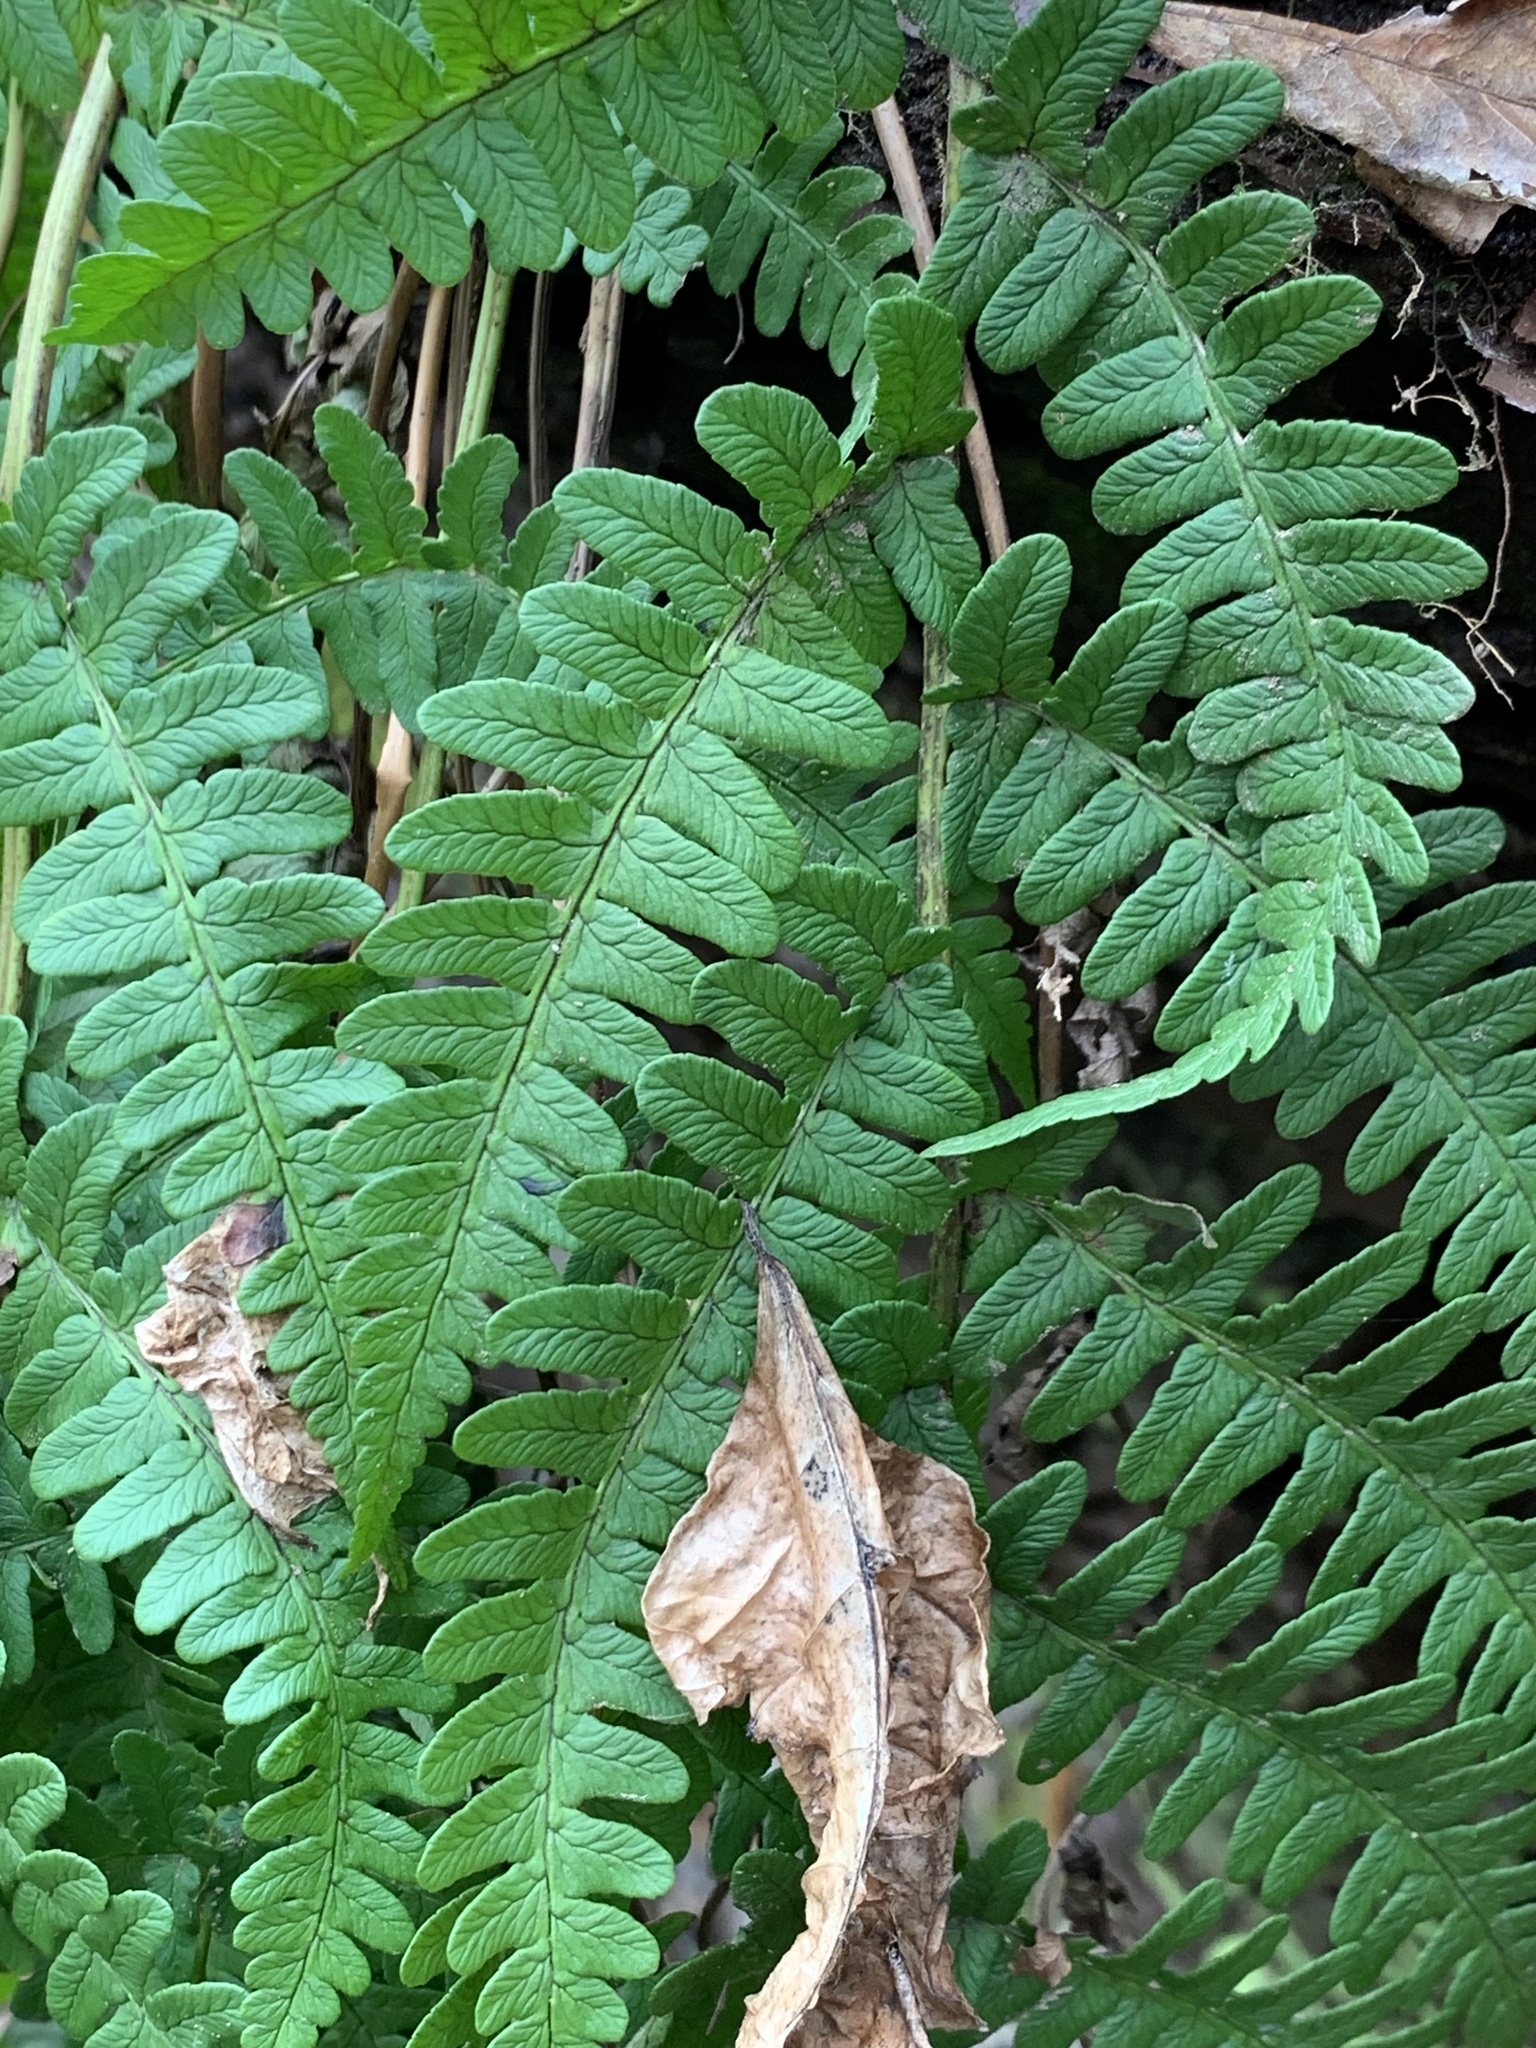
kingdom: Plantae
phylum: Tracheophyta
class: Polypodiopsida
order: Polypodiales
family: Dryopteridaceae
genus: Dryopteris
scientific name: Dryopteris marginalis
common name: Marginal wood fern
